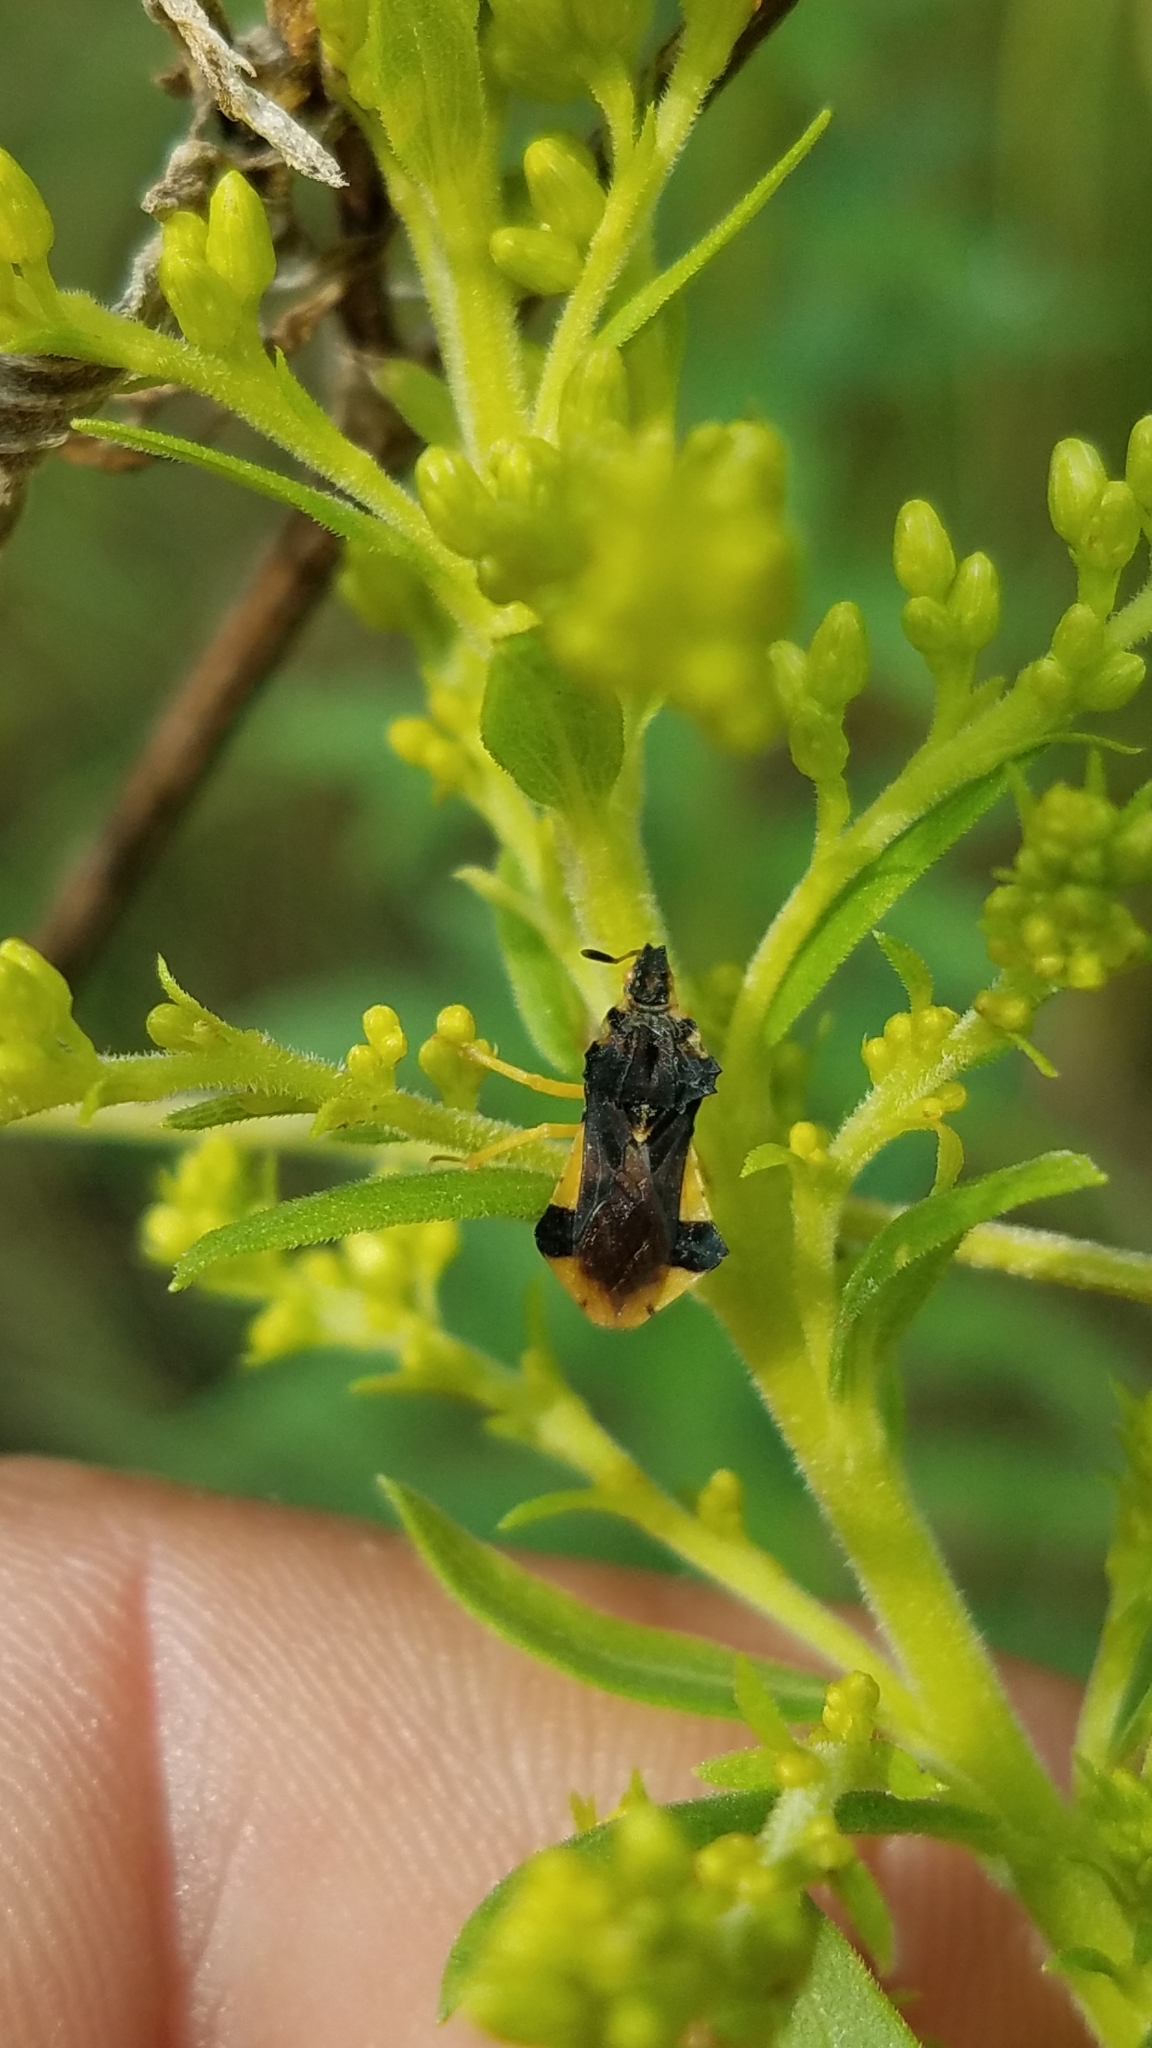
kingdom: Animalia
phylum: Arthropoda
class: Insecta
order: Hemiptera
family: Reduviidae
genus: Phymata
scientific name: Phymata pennsylvanica
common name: Pennsylvania ambush bug
